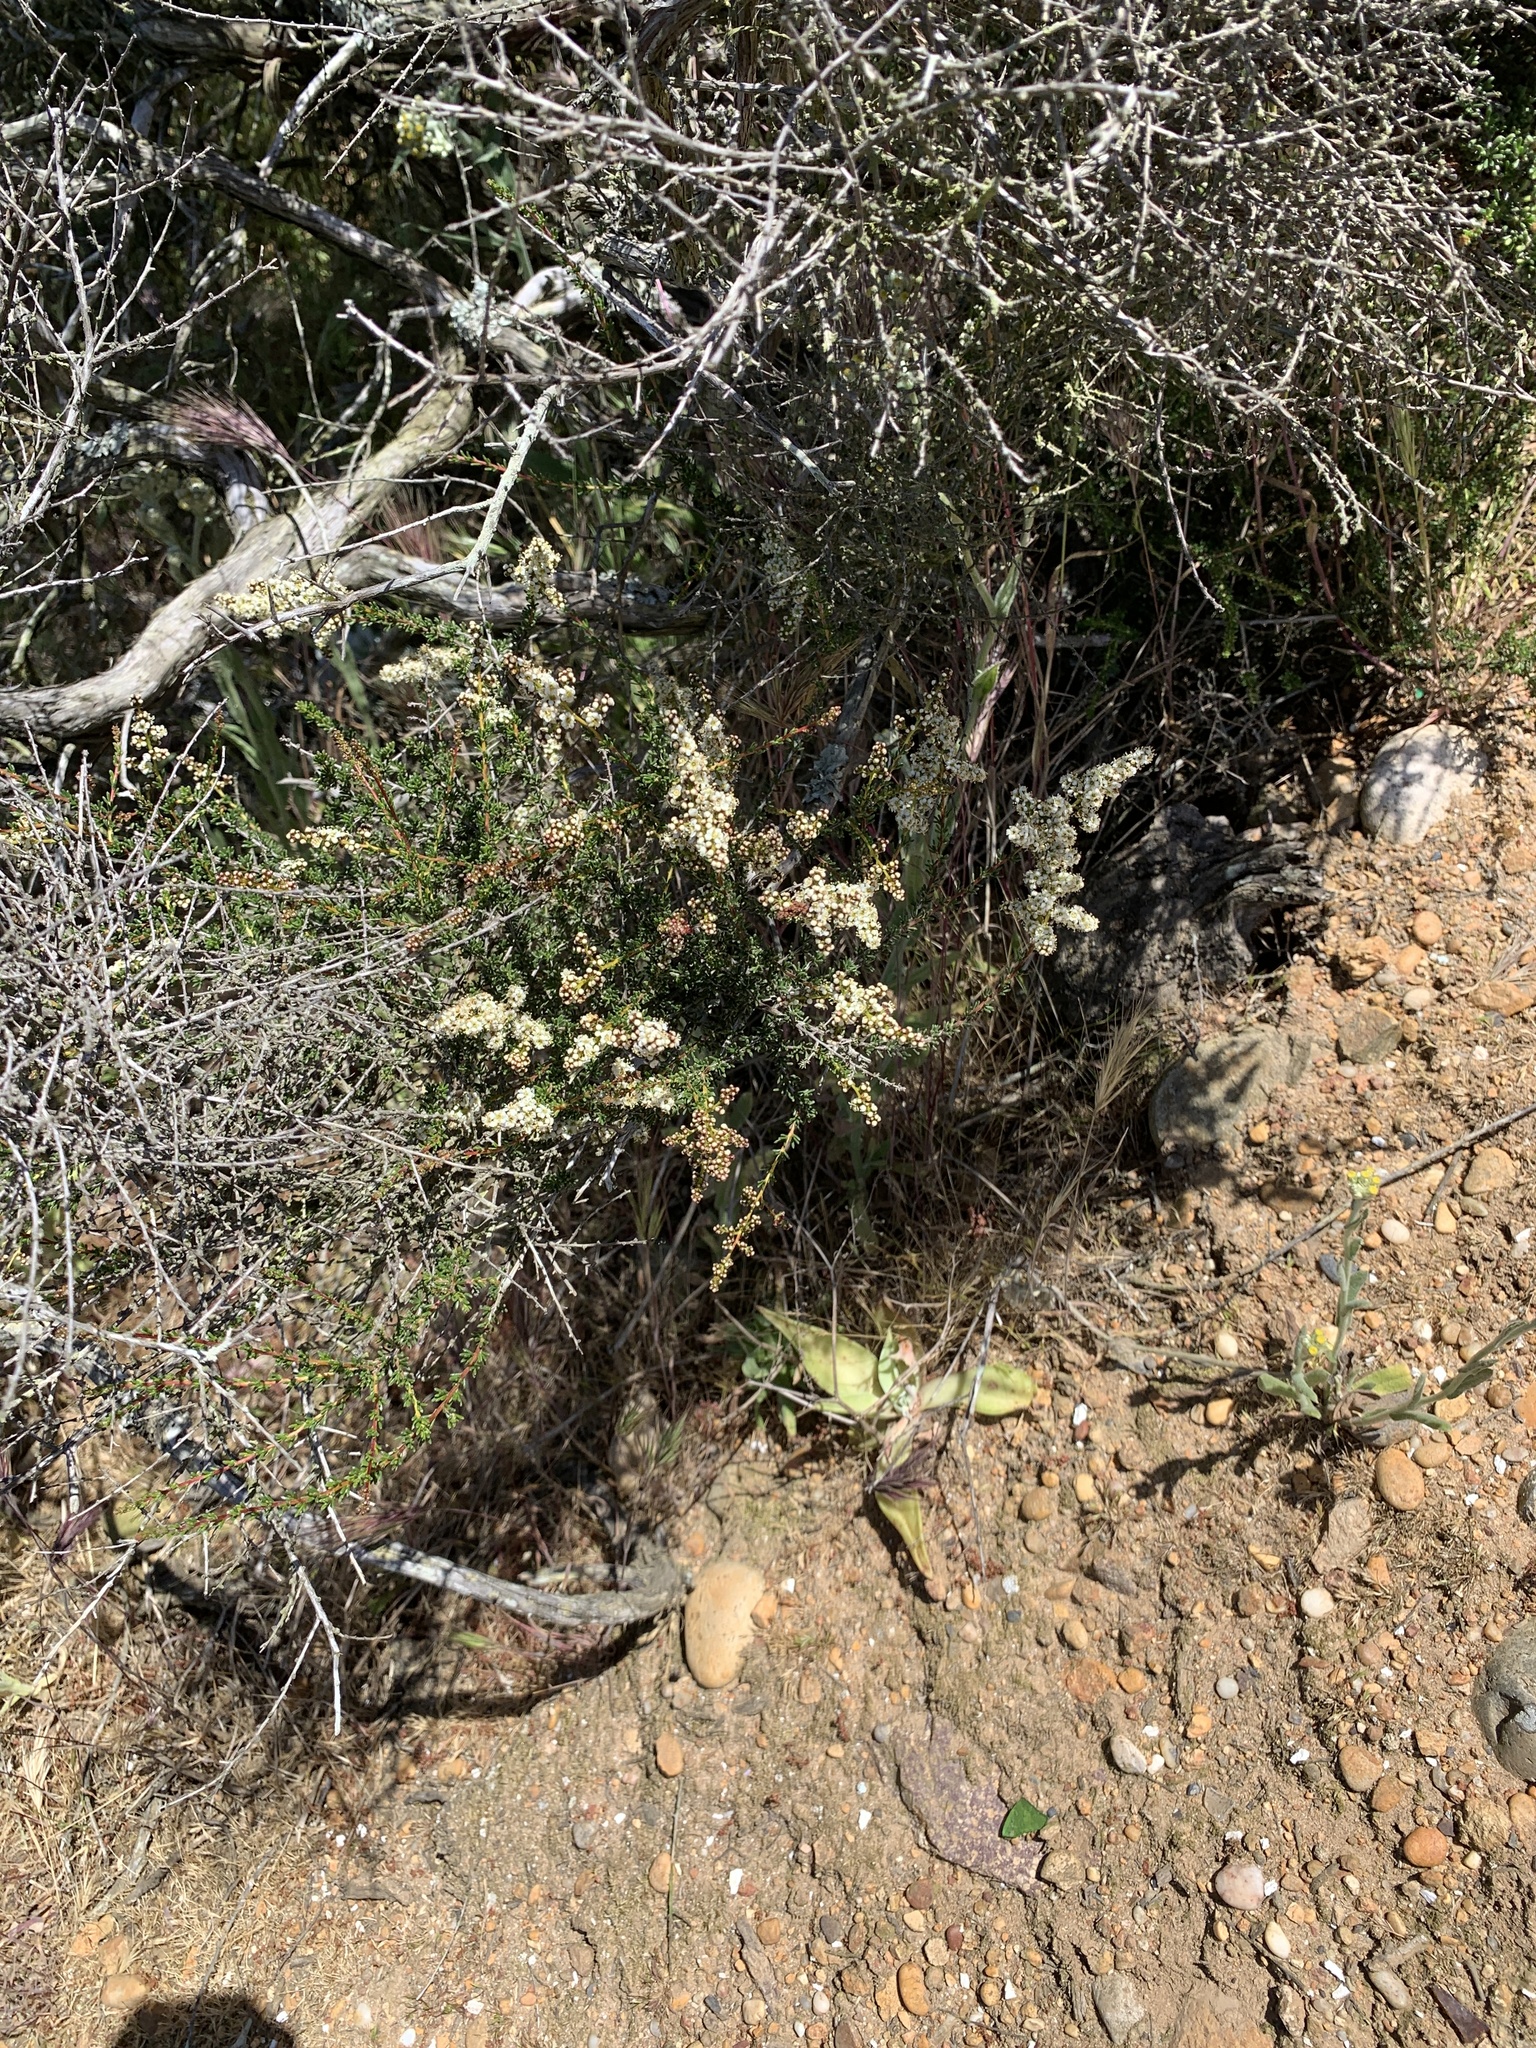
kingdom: Plantae
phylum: Tracheophyta
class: Magnoliopsida
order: Saxifragales
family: Crassulaceae
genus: Dudleya
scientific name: Dudleya lanceolata
